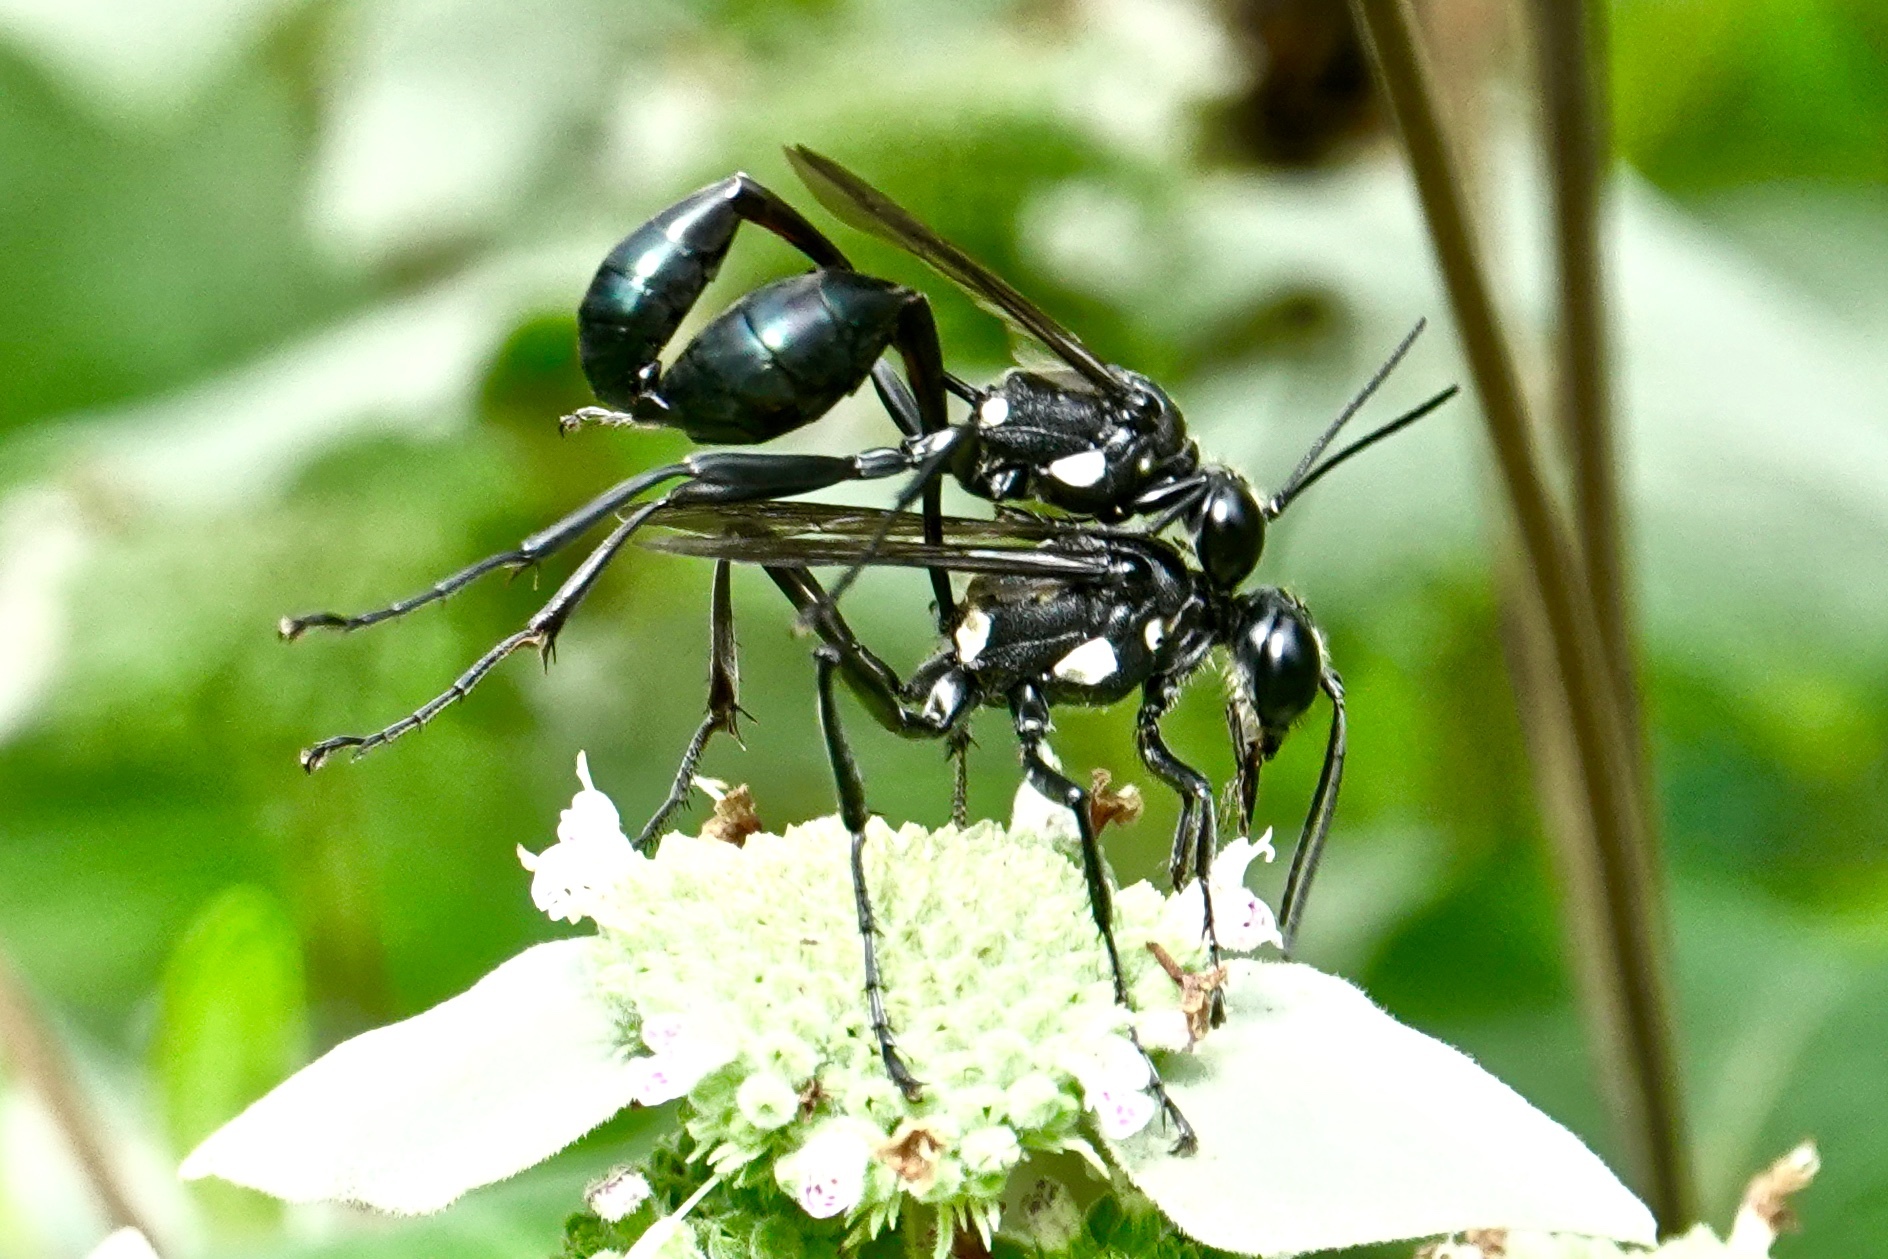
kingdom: Animalia
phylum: Arthropoda
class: Insecta
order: Hymenoptera
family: Sphecidae
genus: Eremnophila
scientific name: Eremnophila aureonotata
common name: Gold-marked thread-waisted wasp
